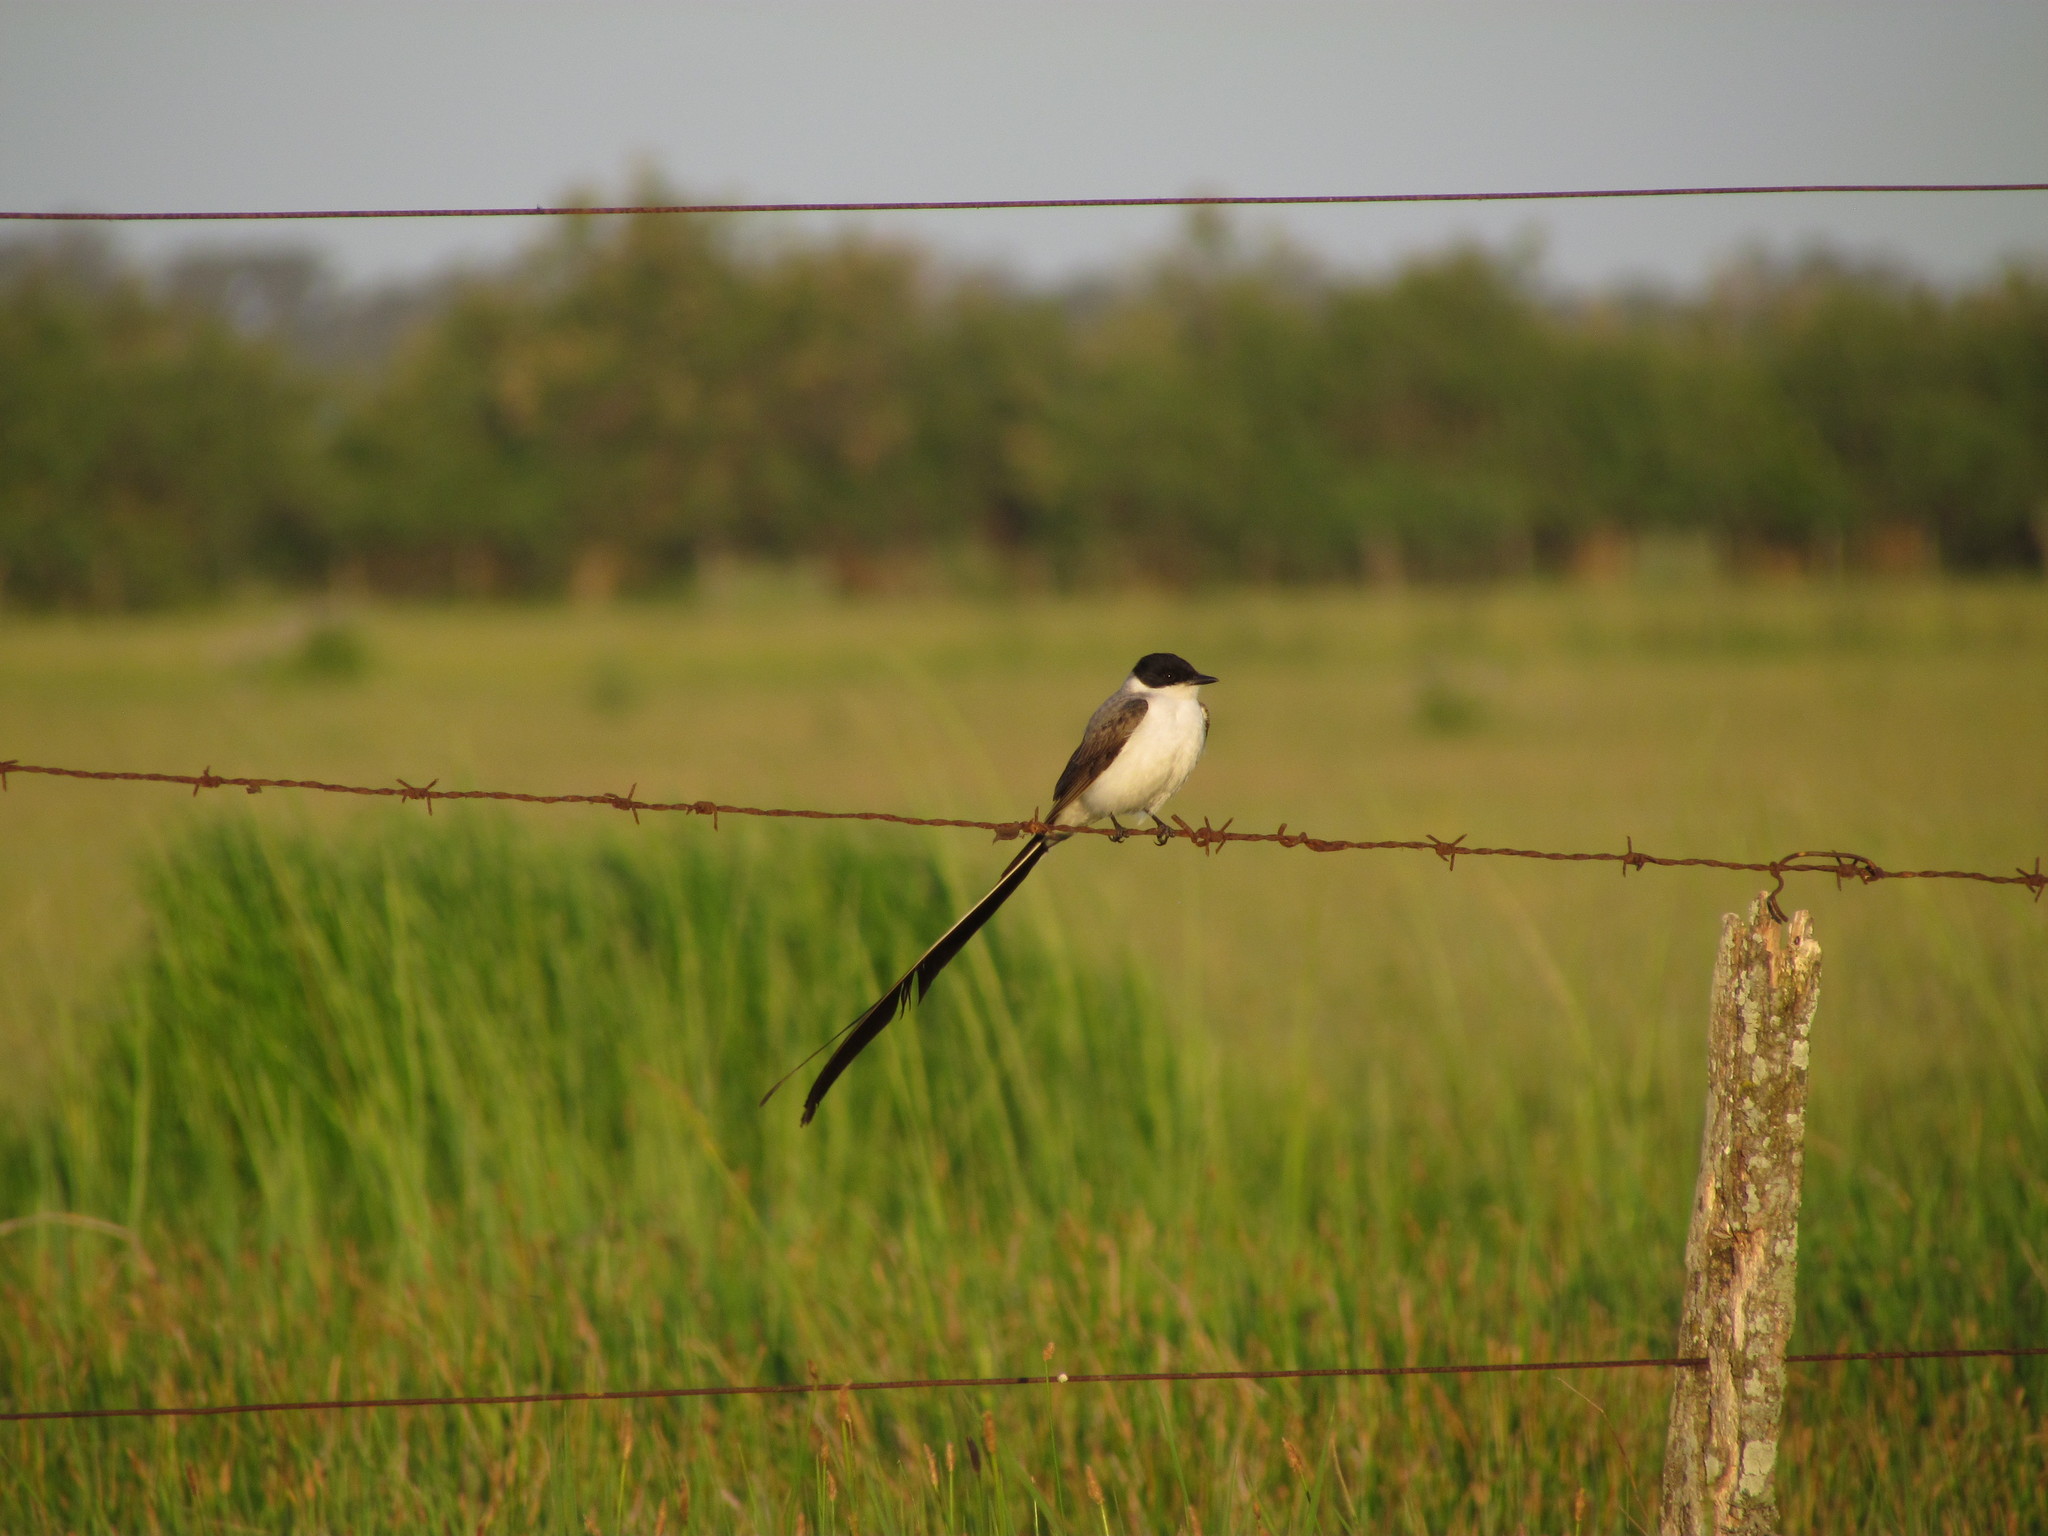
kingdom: Animalia
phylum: Chordata
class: Aves
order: Passeriformes
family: Tyrannidae
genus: Tyrannus
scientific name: Tyrannus savana
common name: Fork-tailed flycatcher
